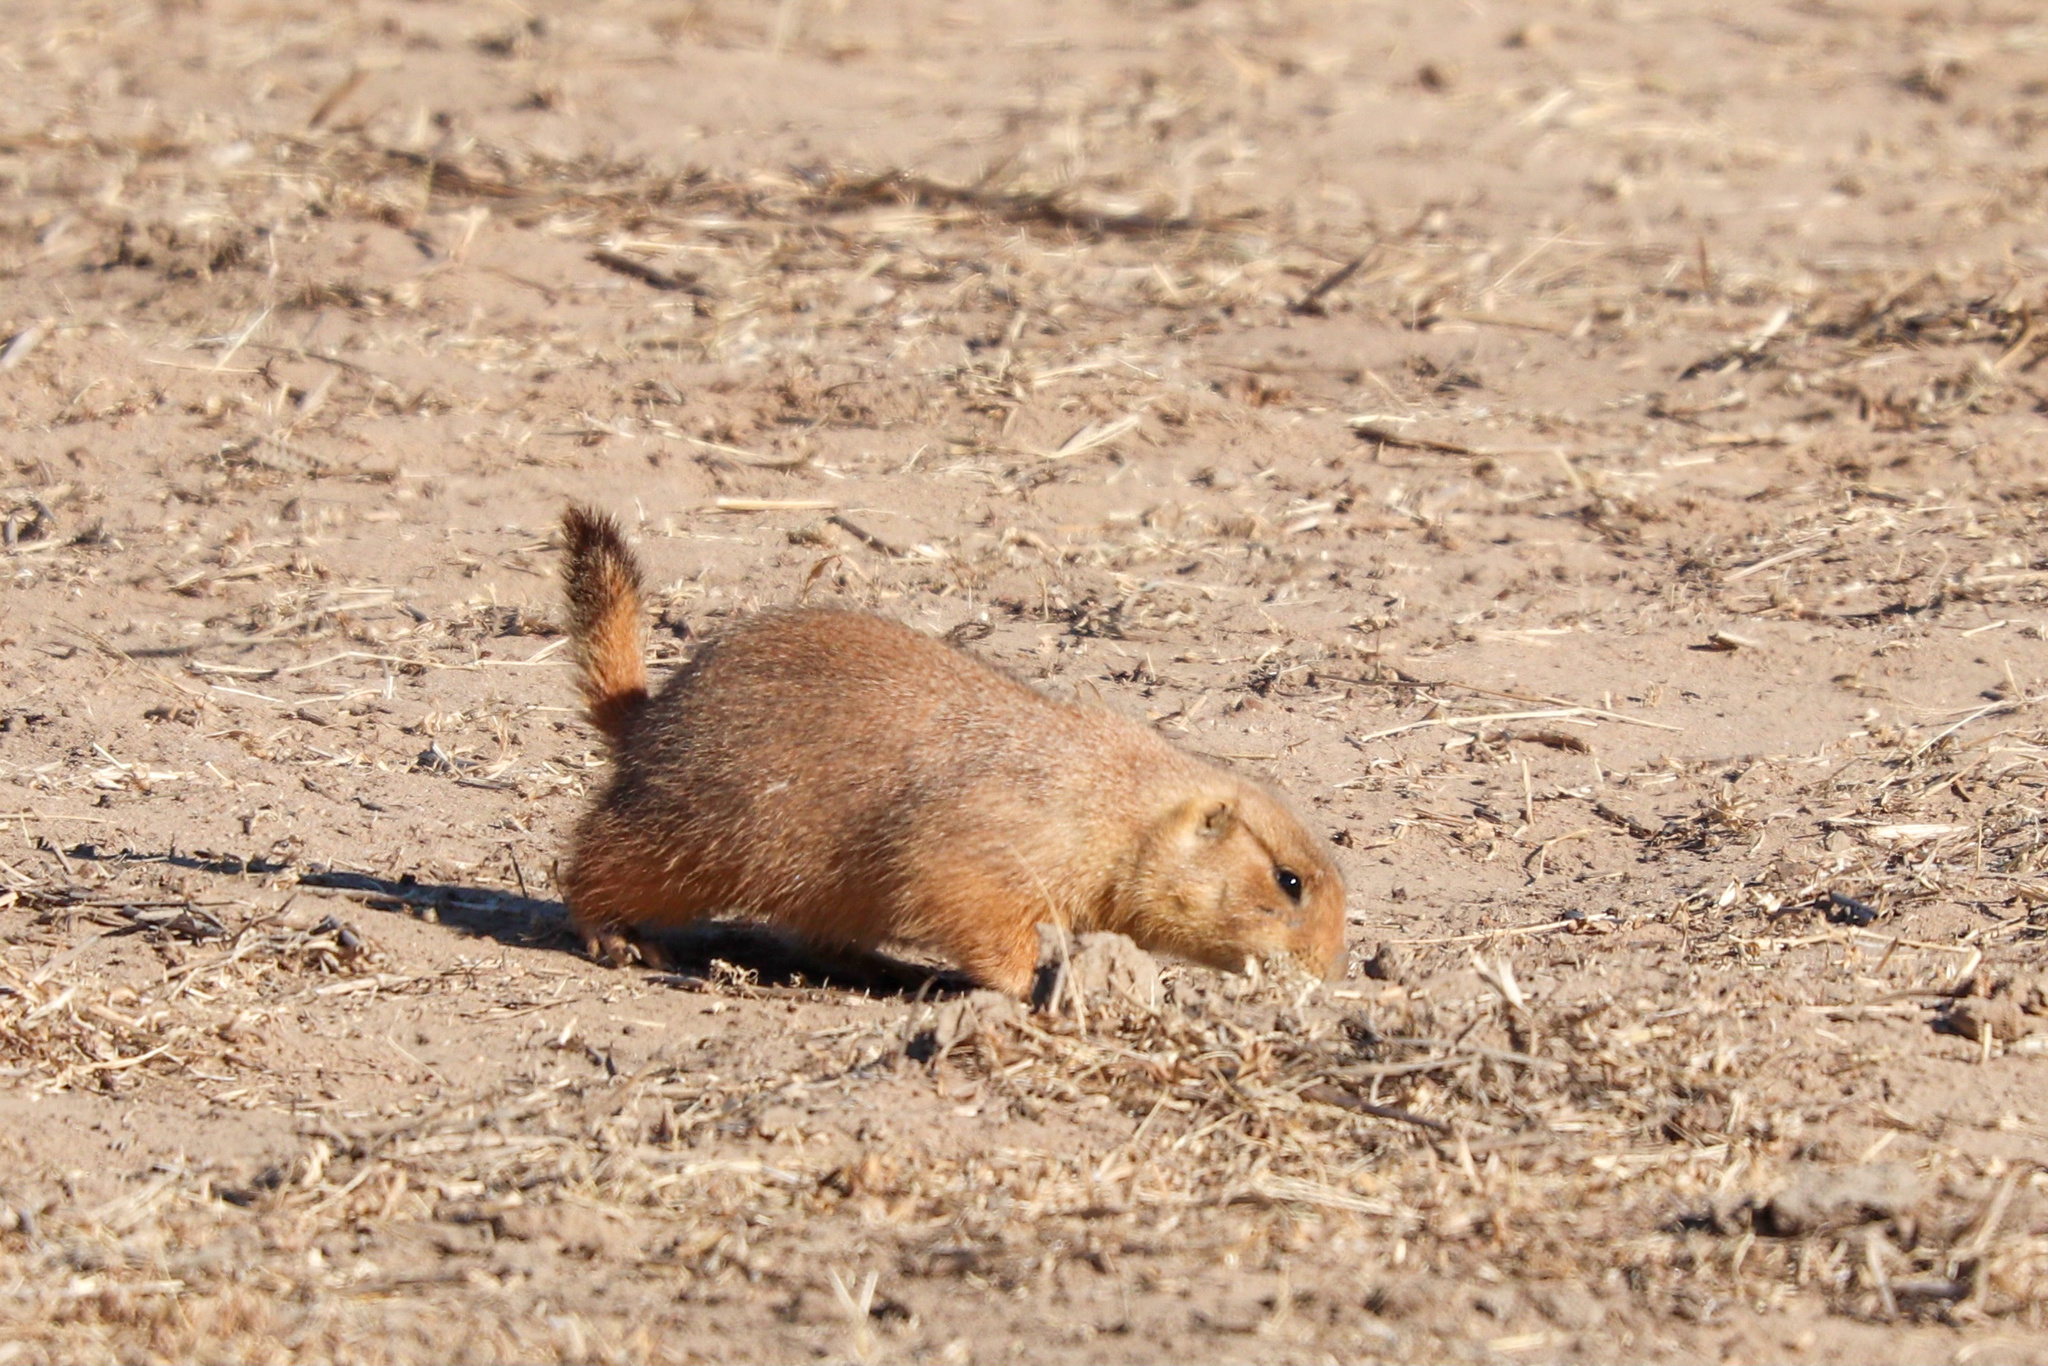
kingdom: Animalia
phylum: Chordata
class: Mammalia
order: Rodentia
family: Sciuridae
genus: Cynomys
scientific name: Cynomys ludovicianus
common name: Black-tailed prairie dog
